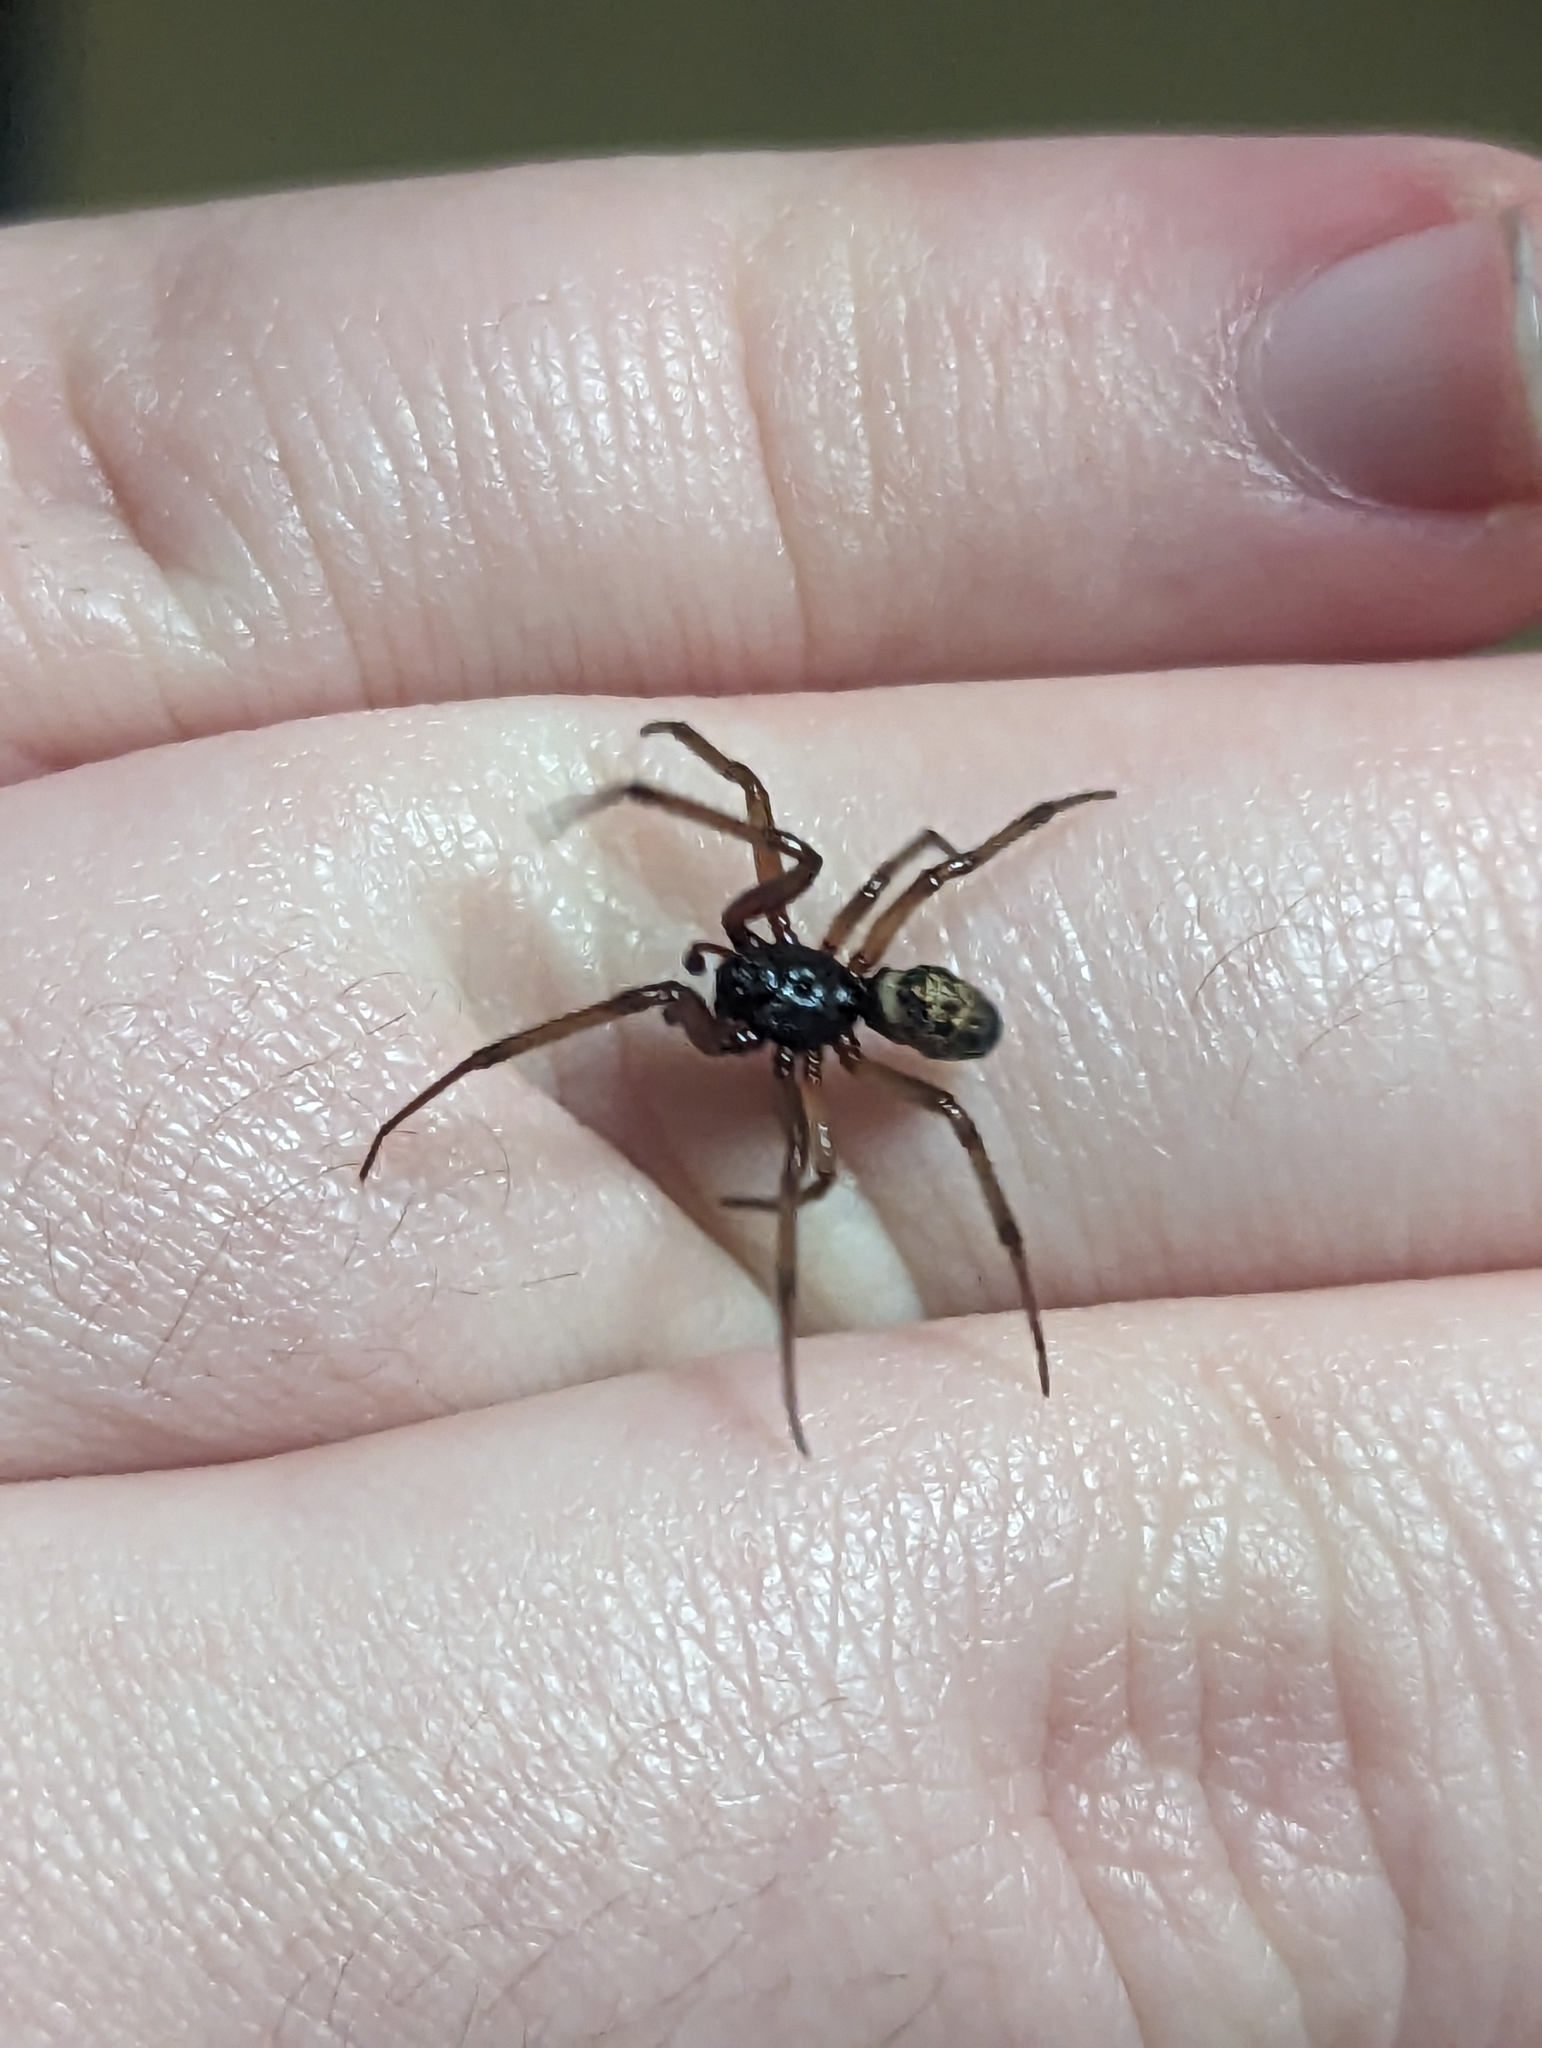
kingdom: Animalia
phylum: Arthropoda
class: Arachnida
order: Araneae
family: Theridiidae
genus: Steatoda
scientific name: Steatoda nobilis
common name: Cobweb weaver
